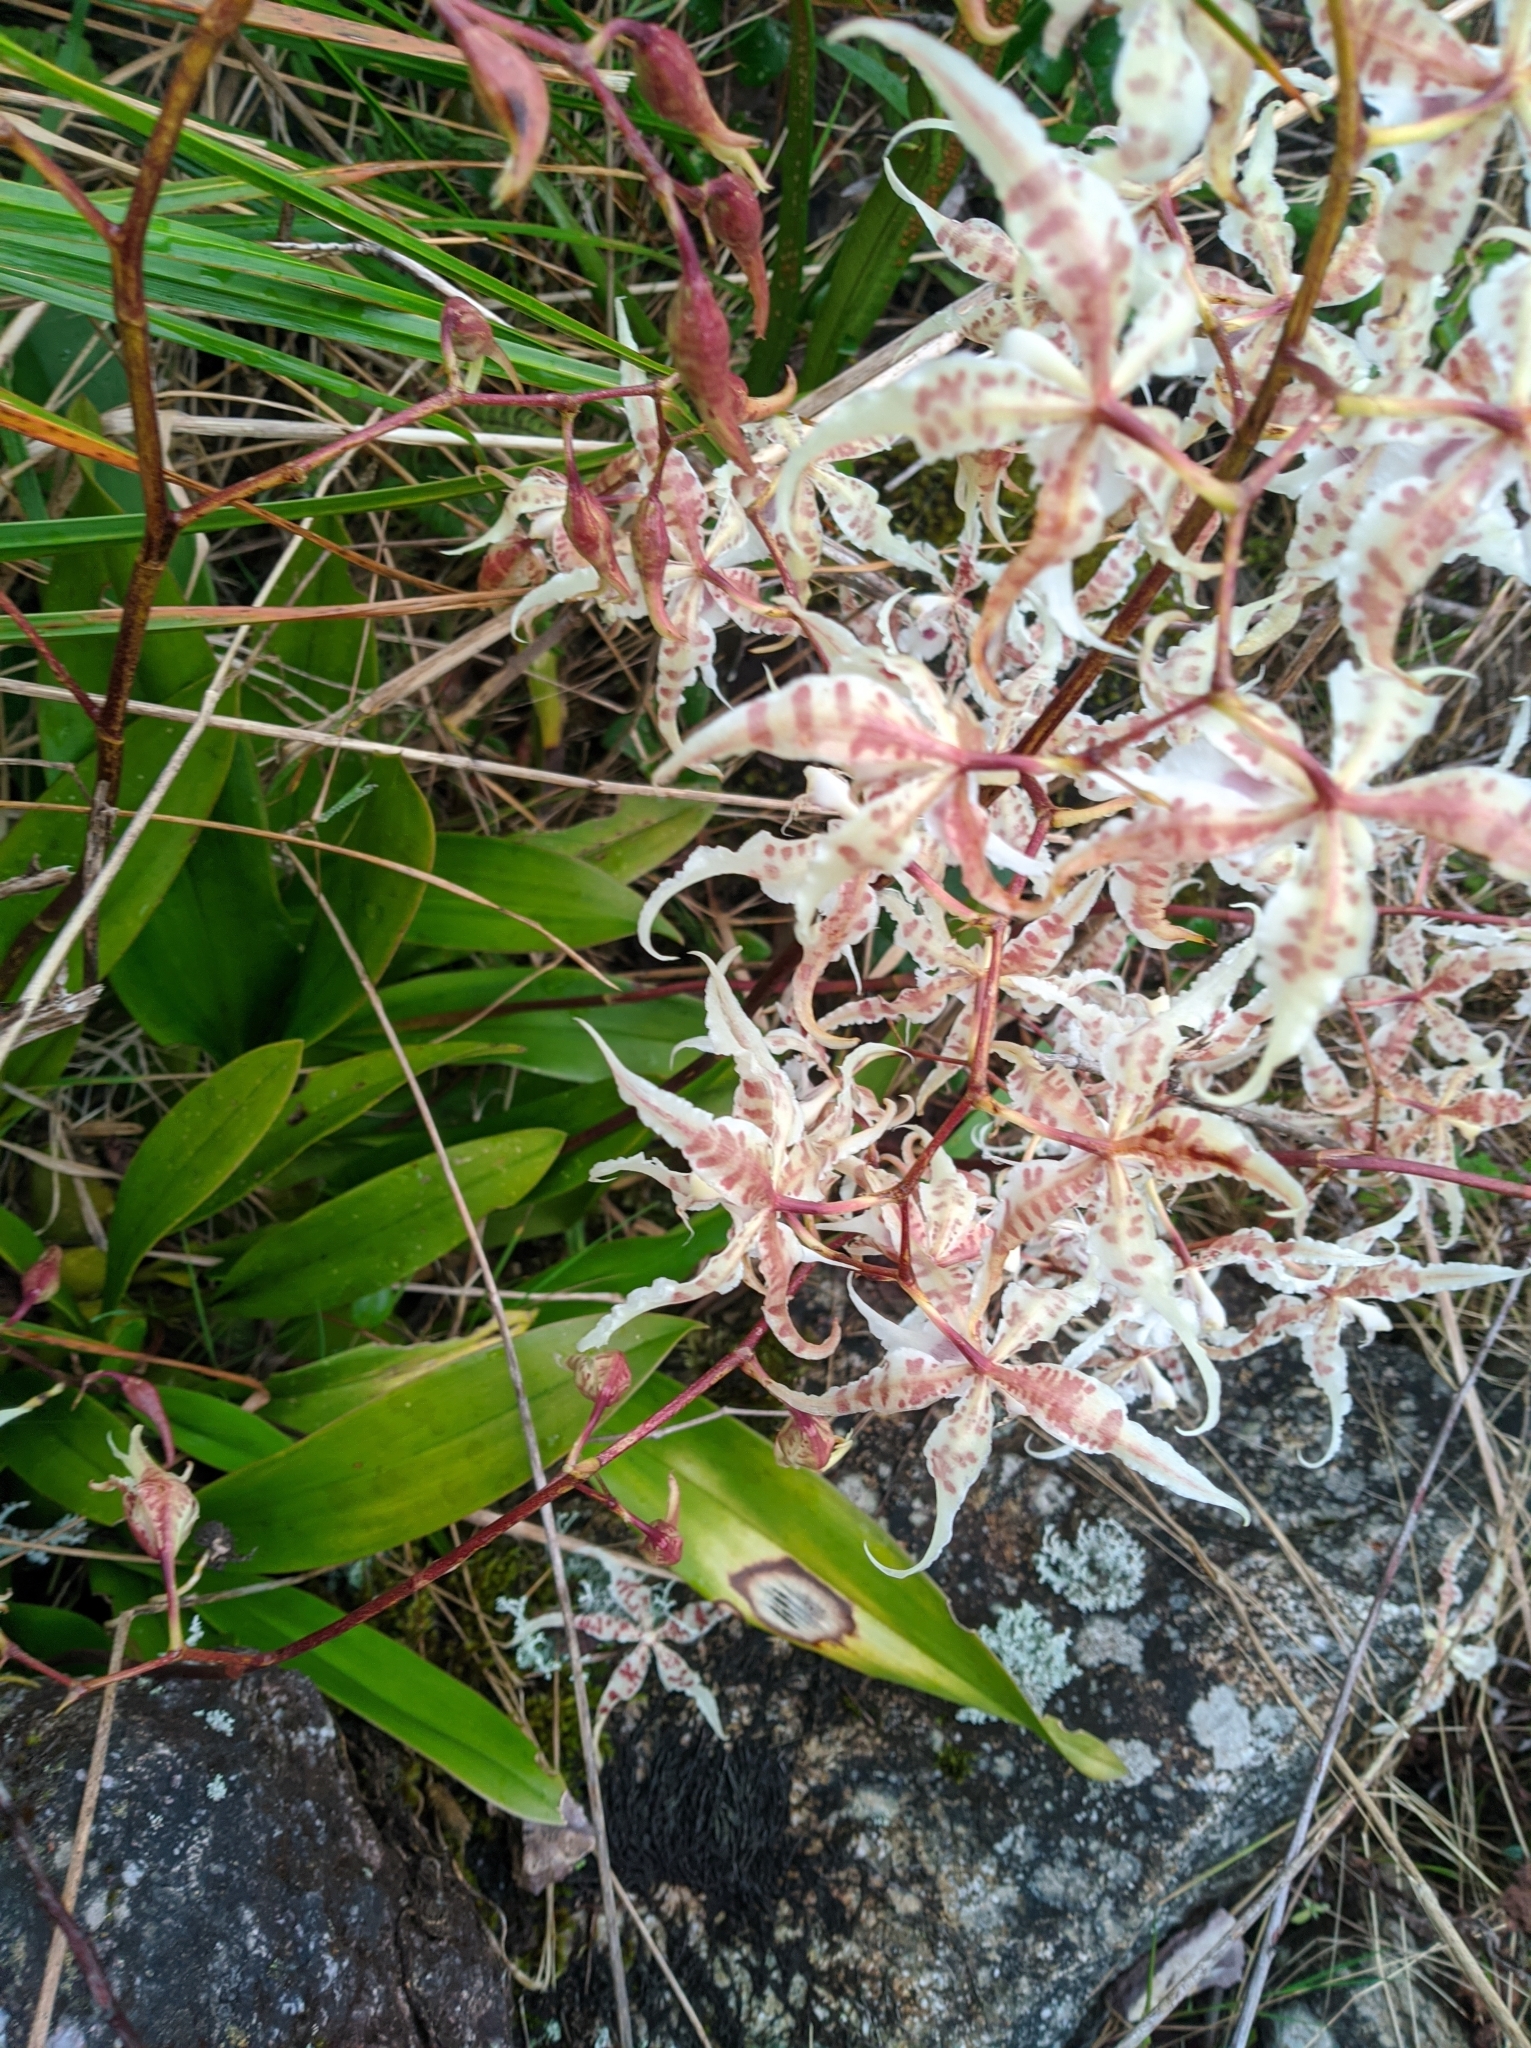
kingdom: Plantae
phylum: Tracheophyta
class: Liliopsida
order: Asparagales
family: Orchidaceae
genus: Oncidium
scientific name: Oncidium lucianianum
